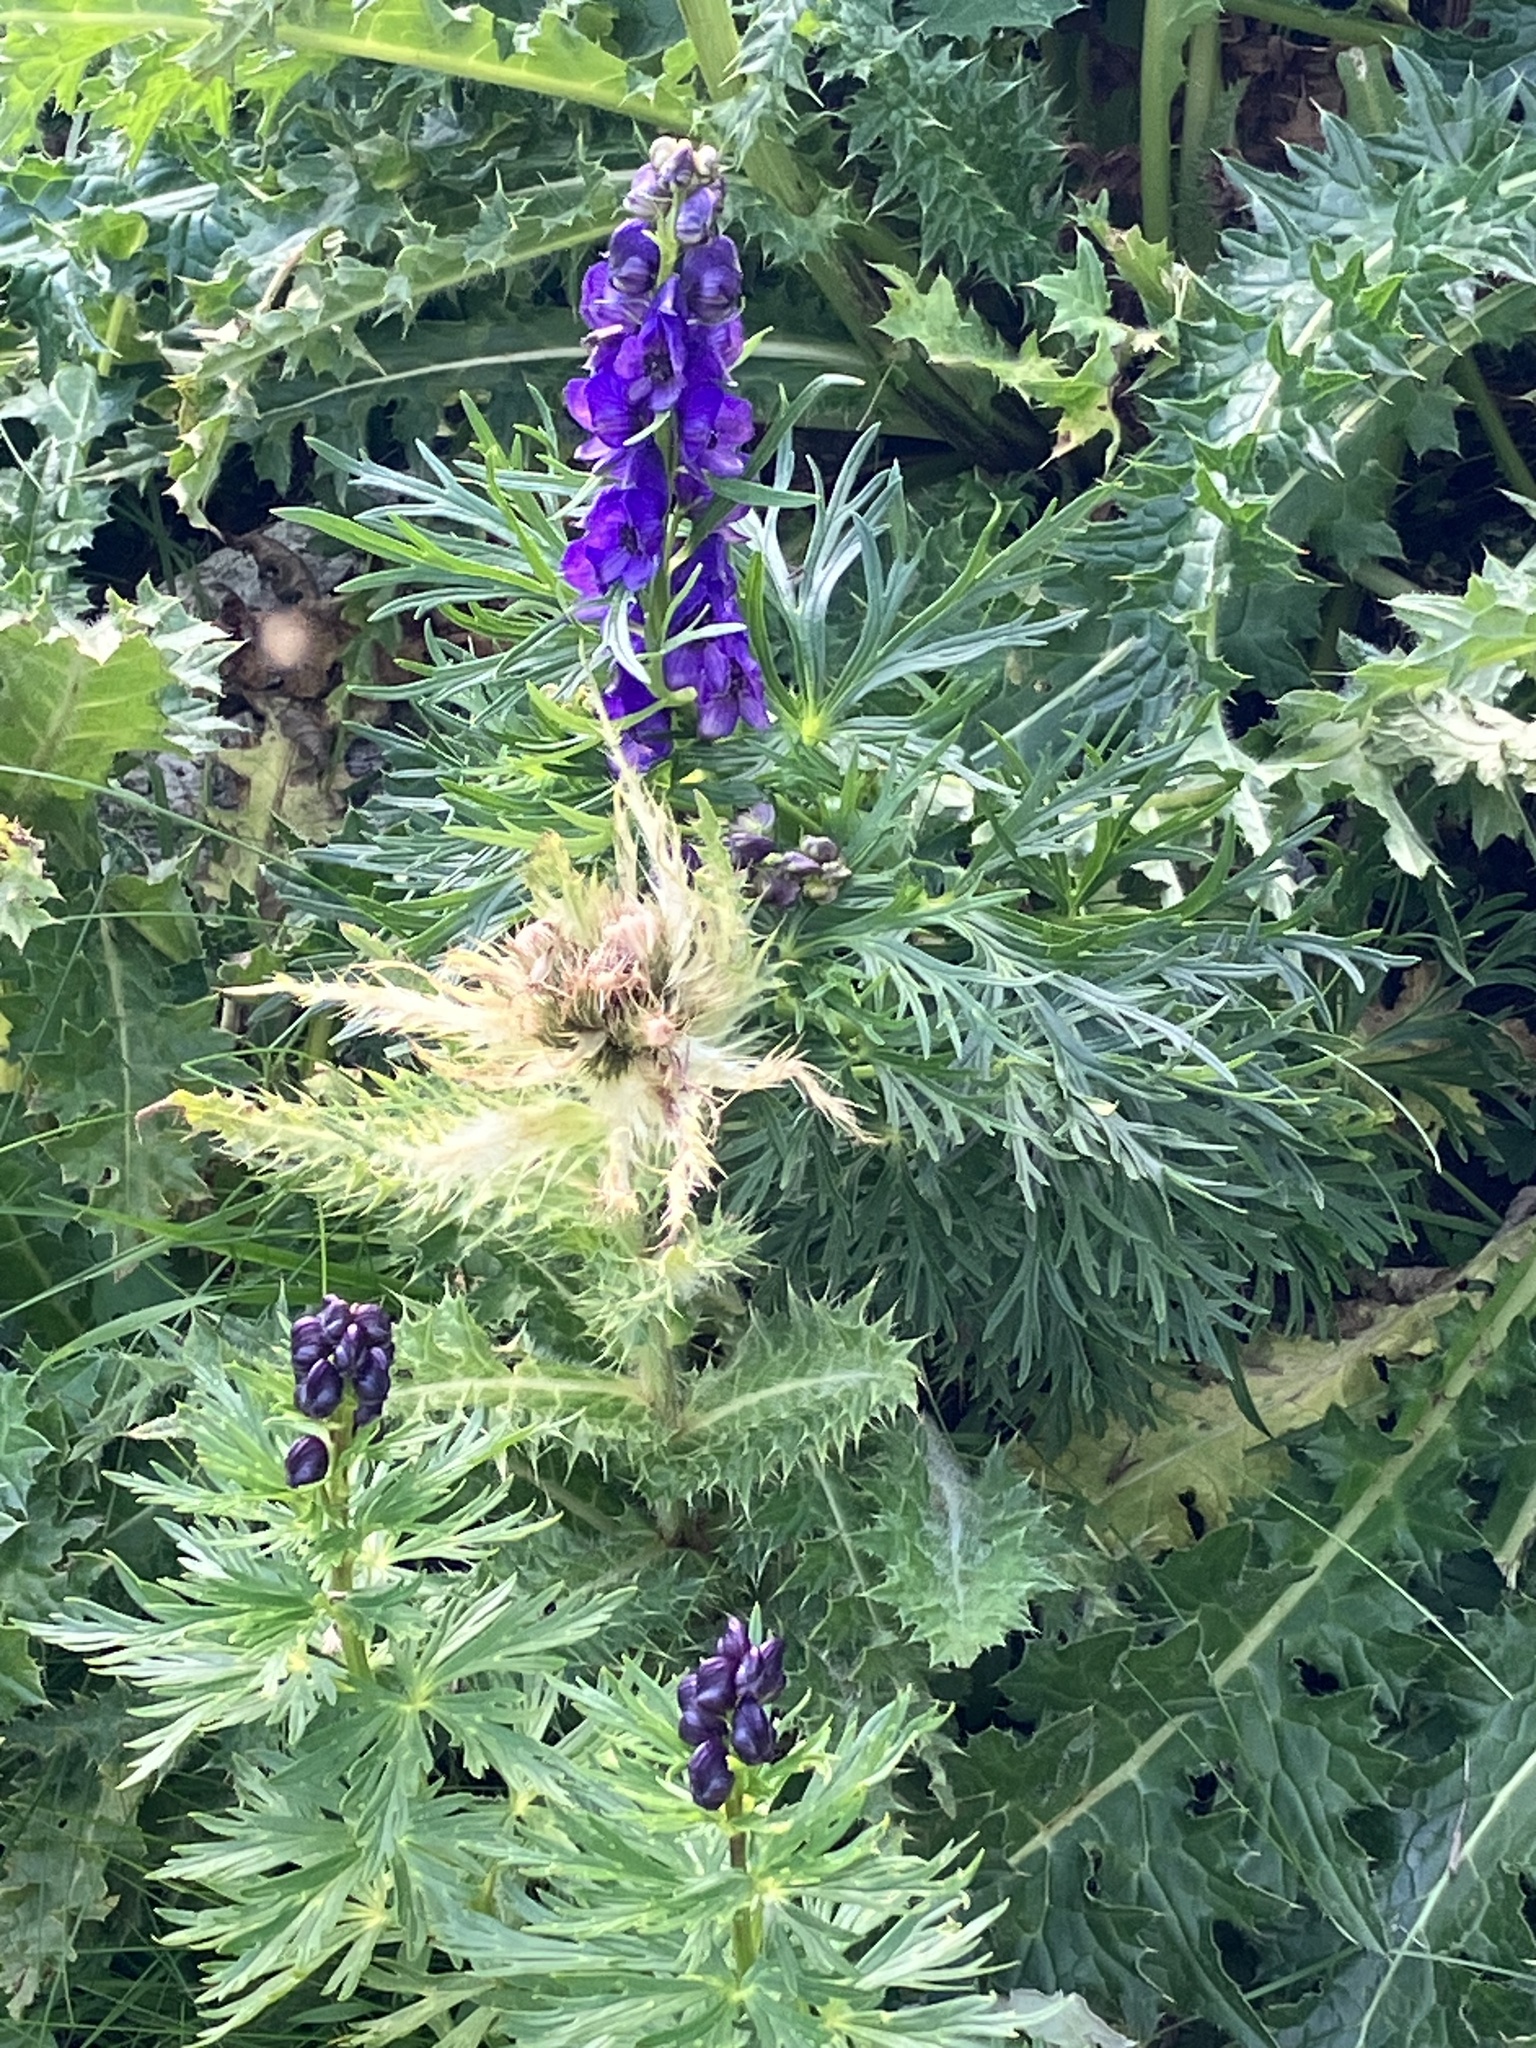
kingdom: Plantae
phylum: Tracheophyta
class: Magnoliopsida
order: Asterales
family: Asteraceae
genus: Cirsium
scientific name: Cirsium spinosissimum
